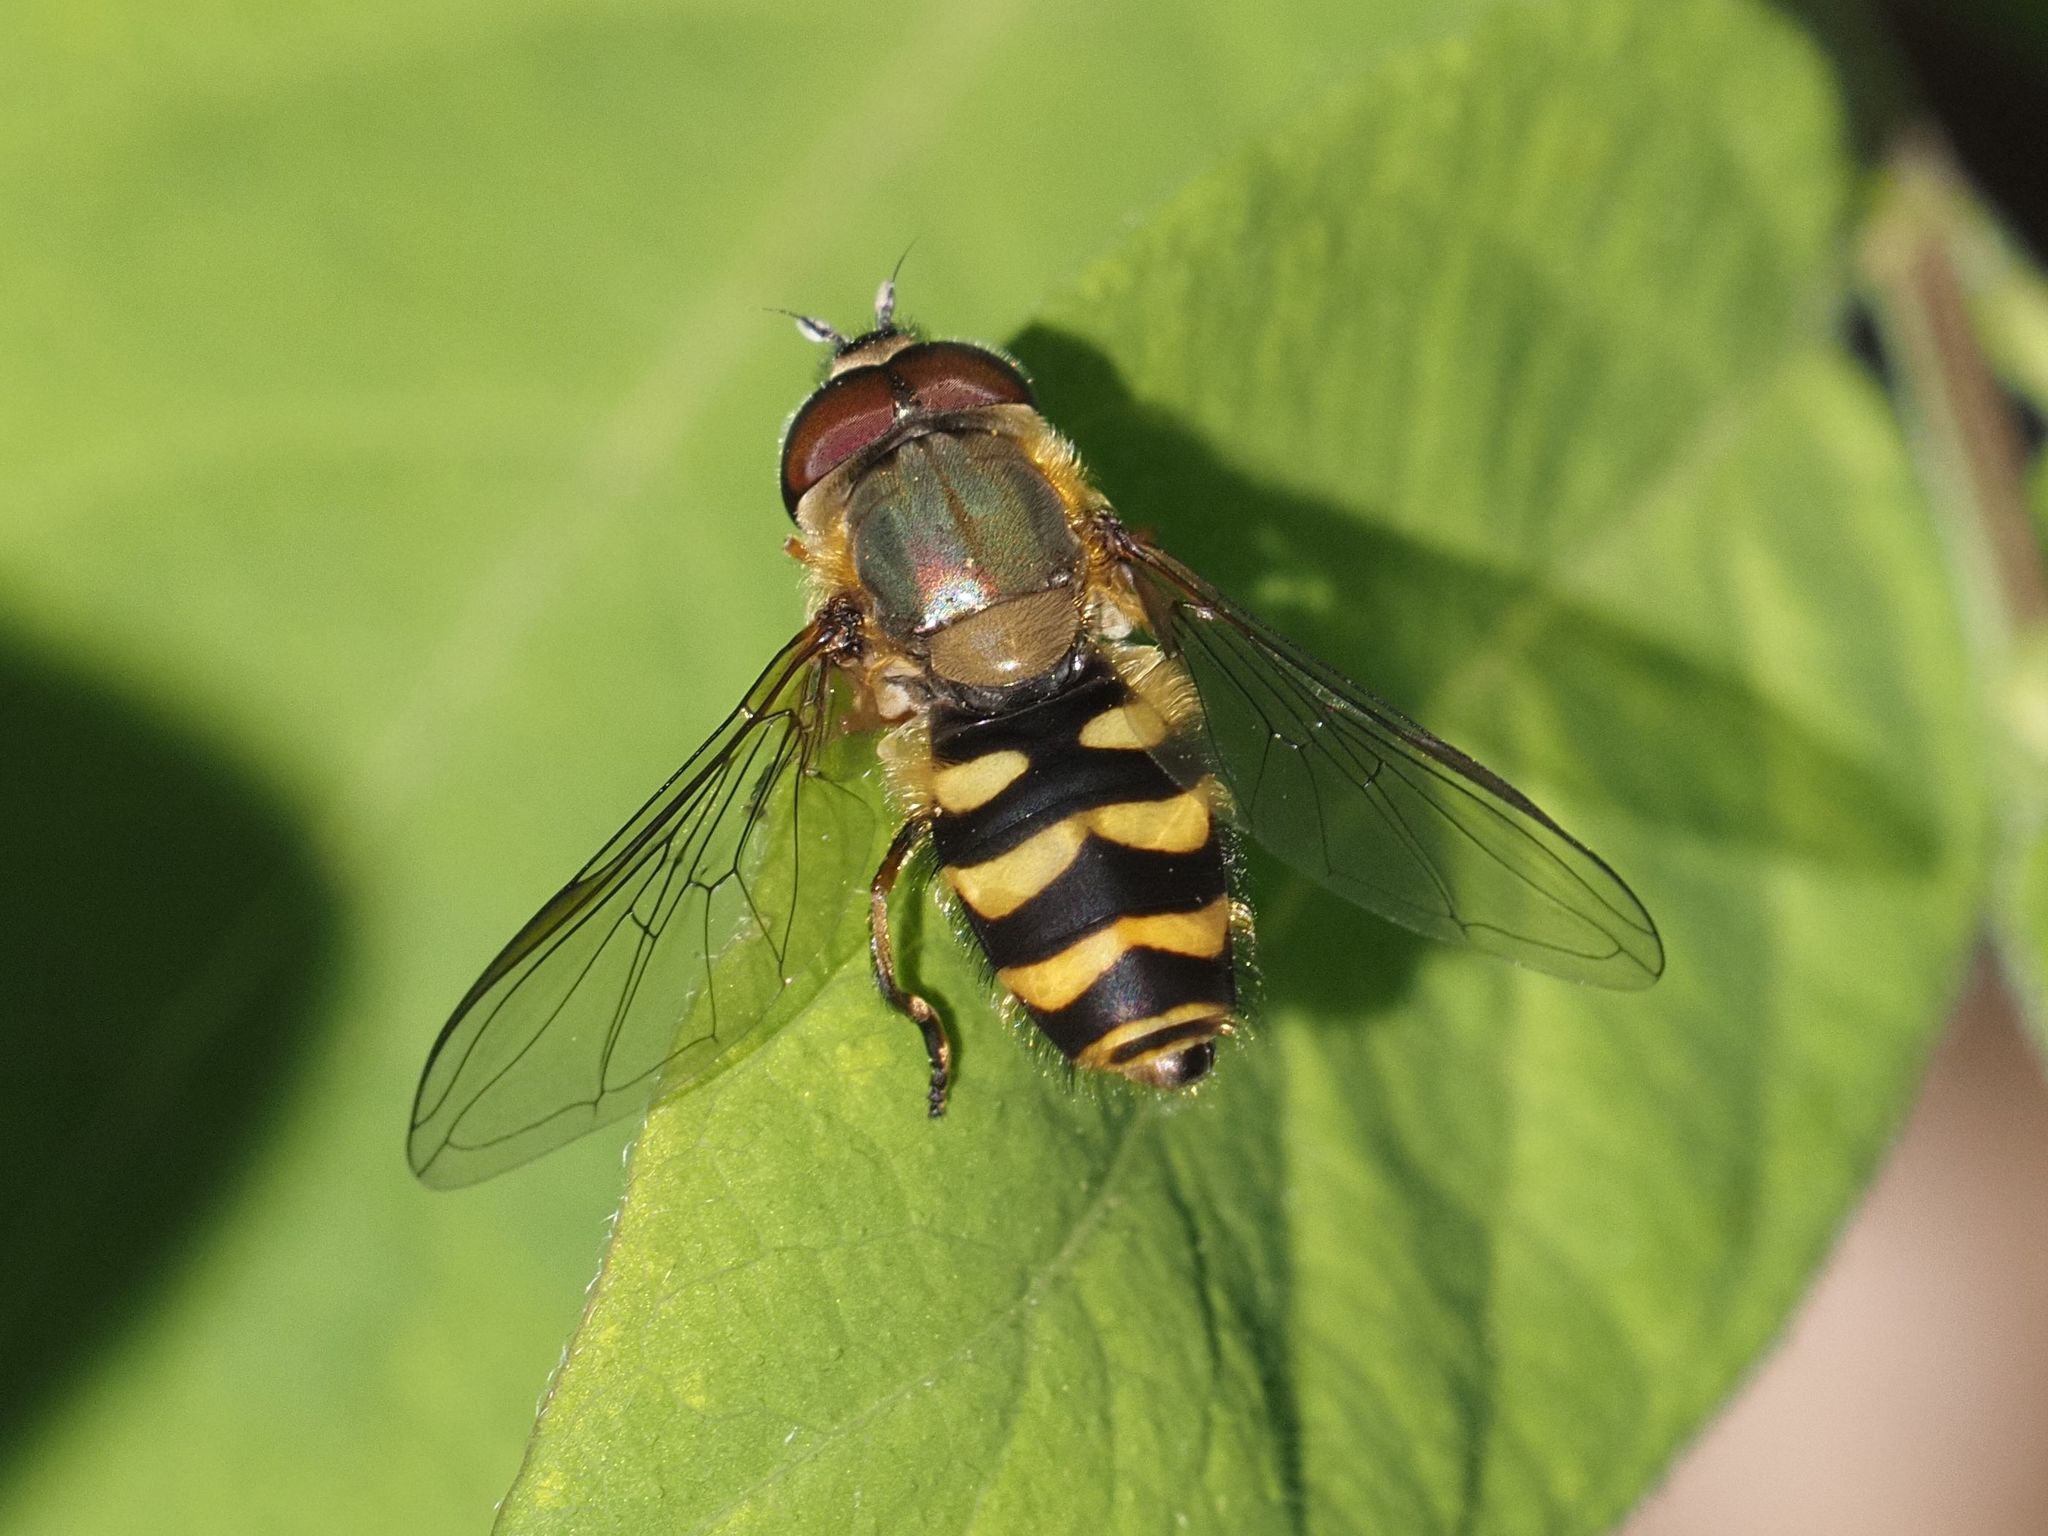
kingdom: Animalia
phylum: Arthropoda
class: Insecta
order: Diptera
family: Syrphidae
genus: Syrphus
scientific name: Syrphus torvus
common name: Hairy-eyed flower fly
